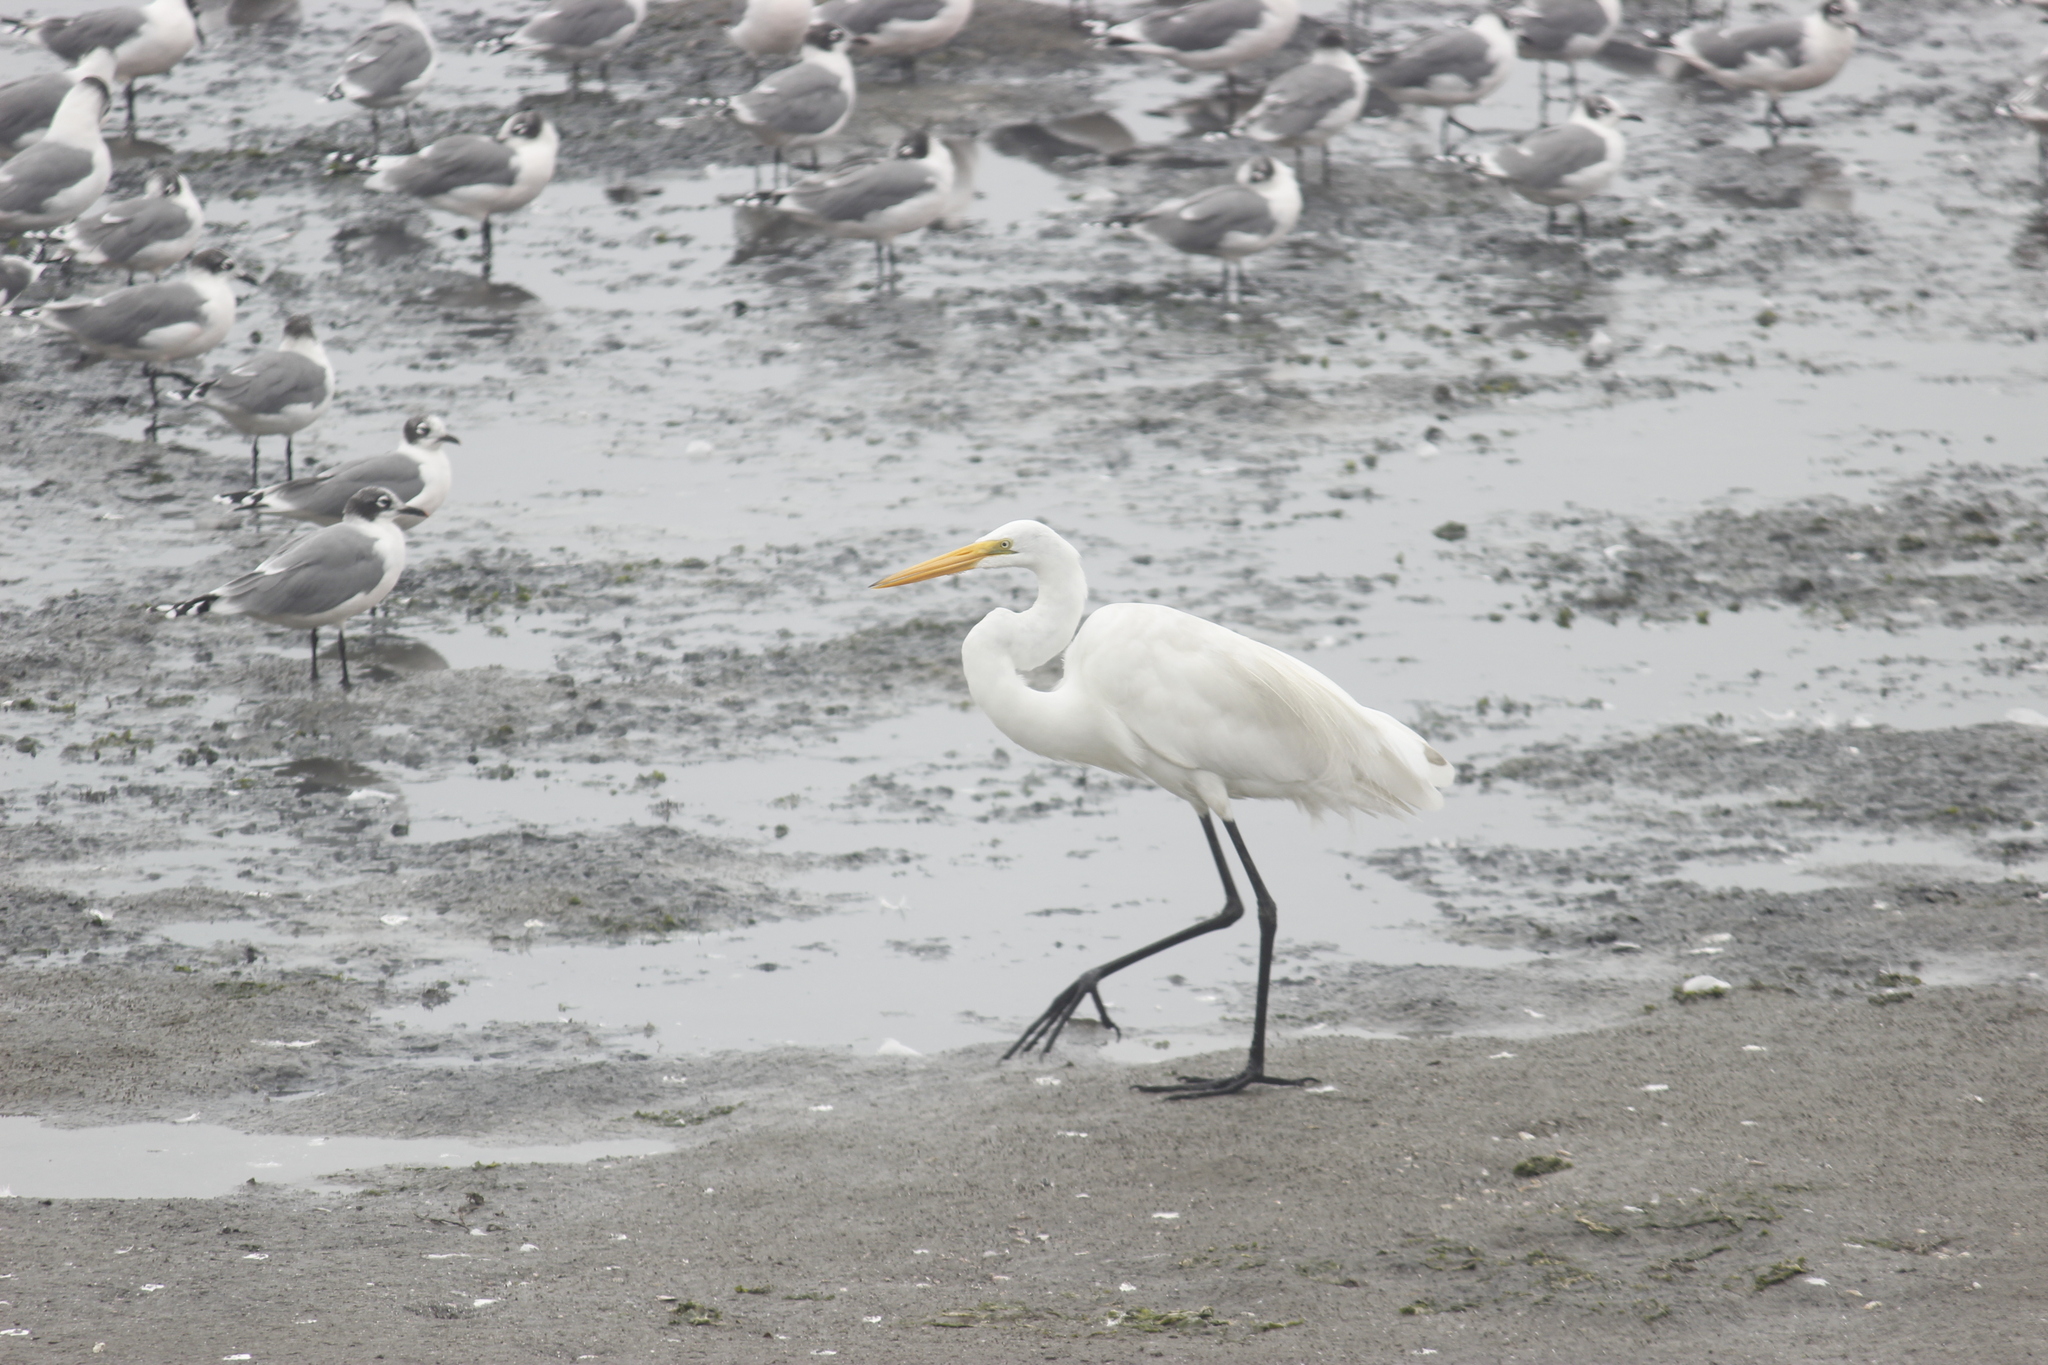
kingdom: Animalia
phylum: Chordata
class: Aves
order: Pelecaniformes
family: Ardeidae
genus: Ardea
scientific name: Ardea alba
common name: Great egret
